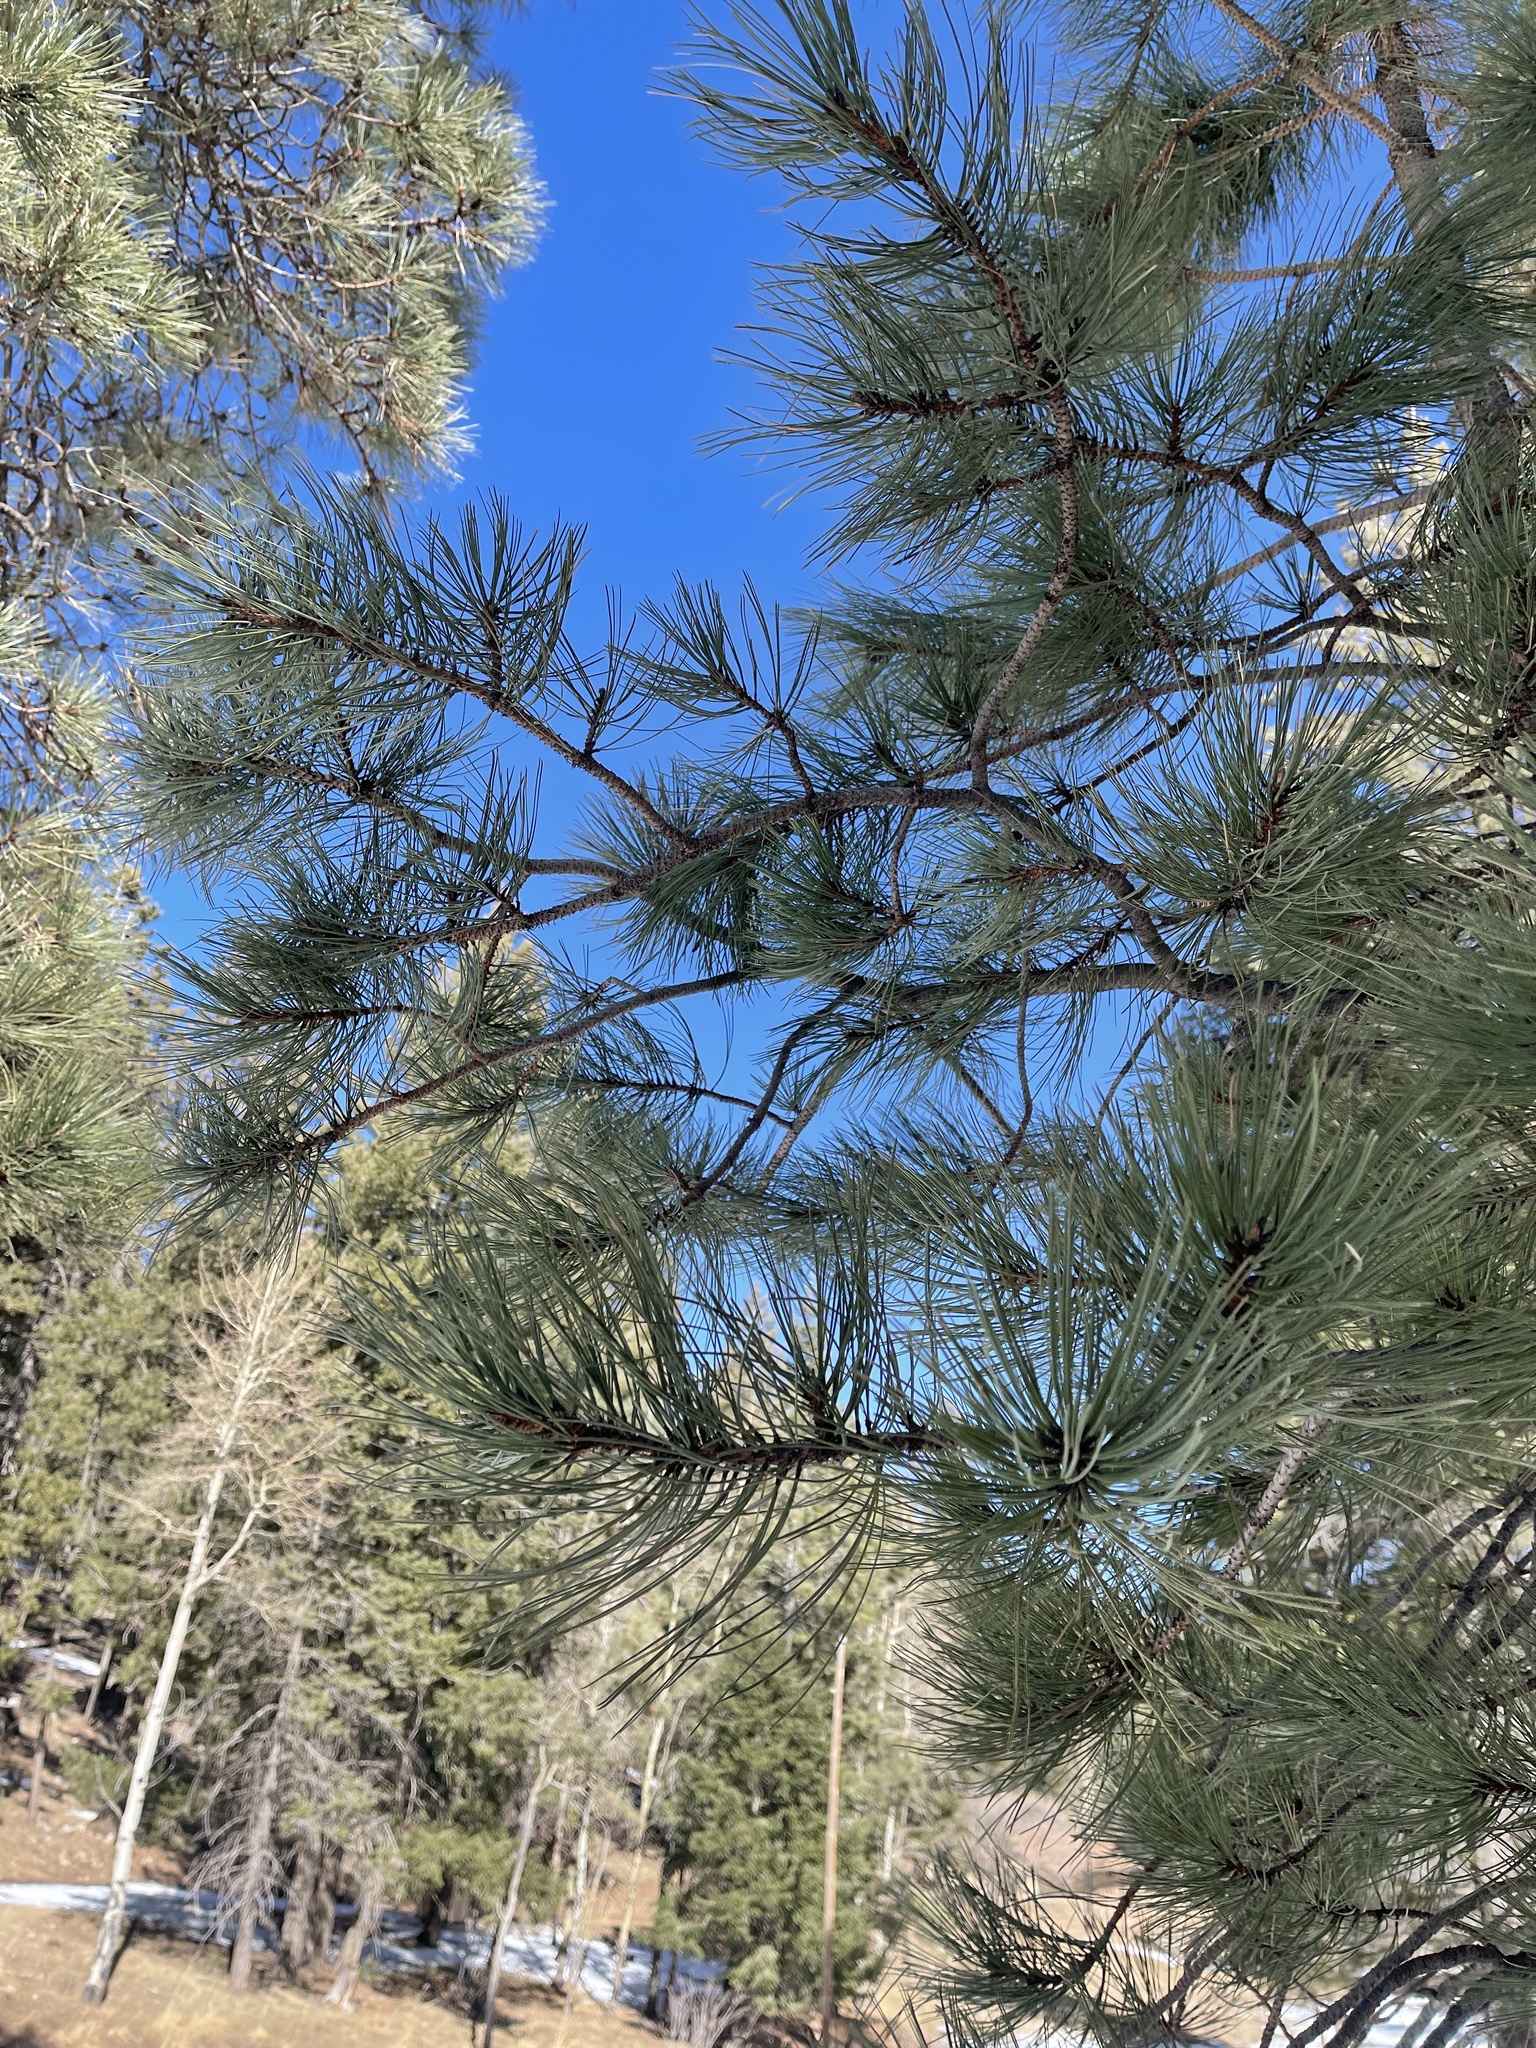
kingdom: Plantae
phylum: Tracheophyta
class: Pinopsida
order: Pinales
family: Pinaceae
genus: Pinus
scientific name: Pinus ponderosa
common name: Western yellow-pine
